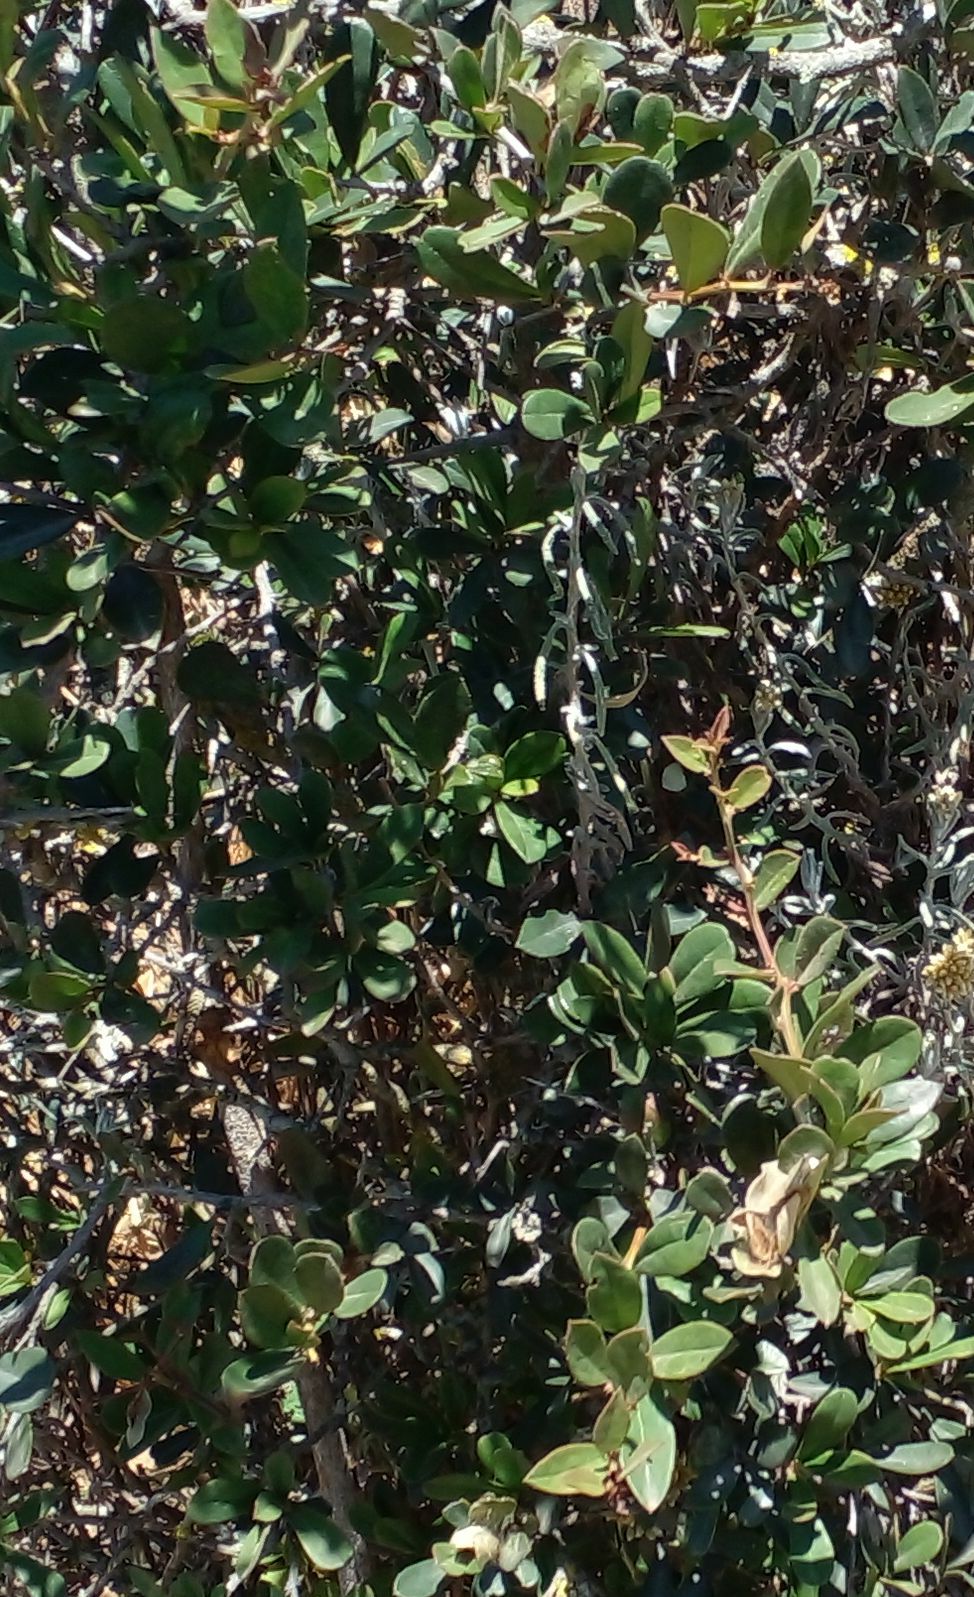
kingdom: Plantae
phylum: Tracheophyta
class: Magnoliopsida
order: Celastrales
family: Celastraceae
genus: Putterlickia
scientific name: Putterlickia pyracantha
